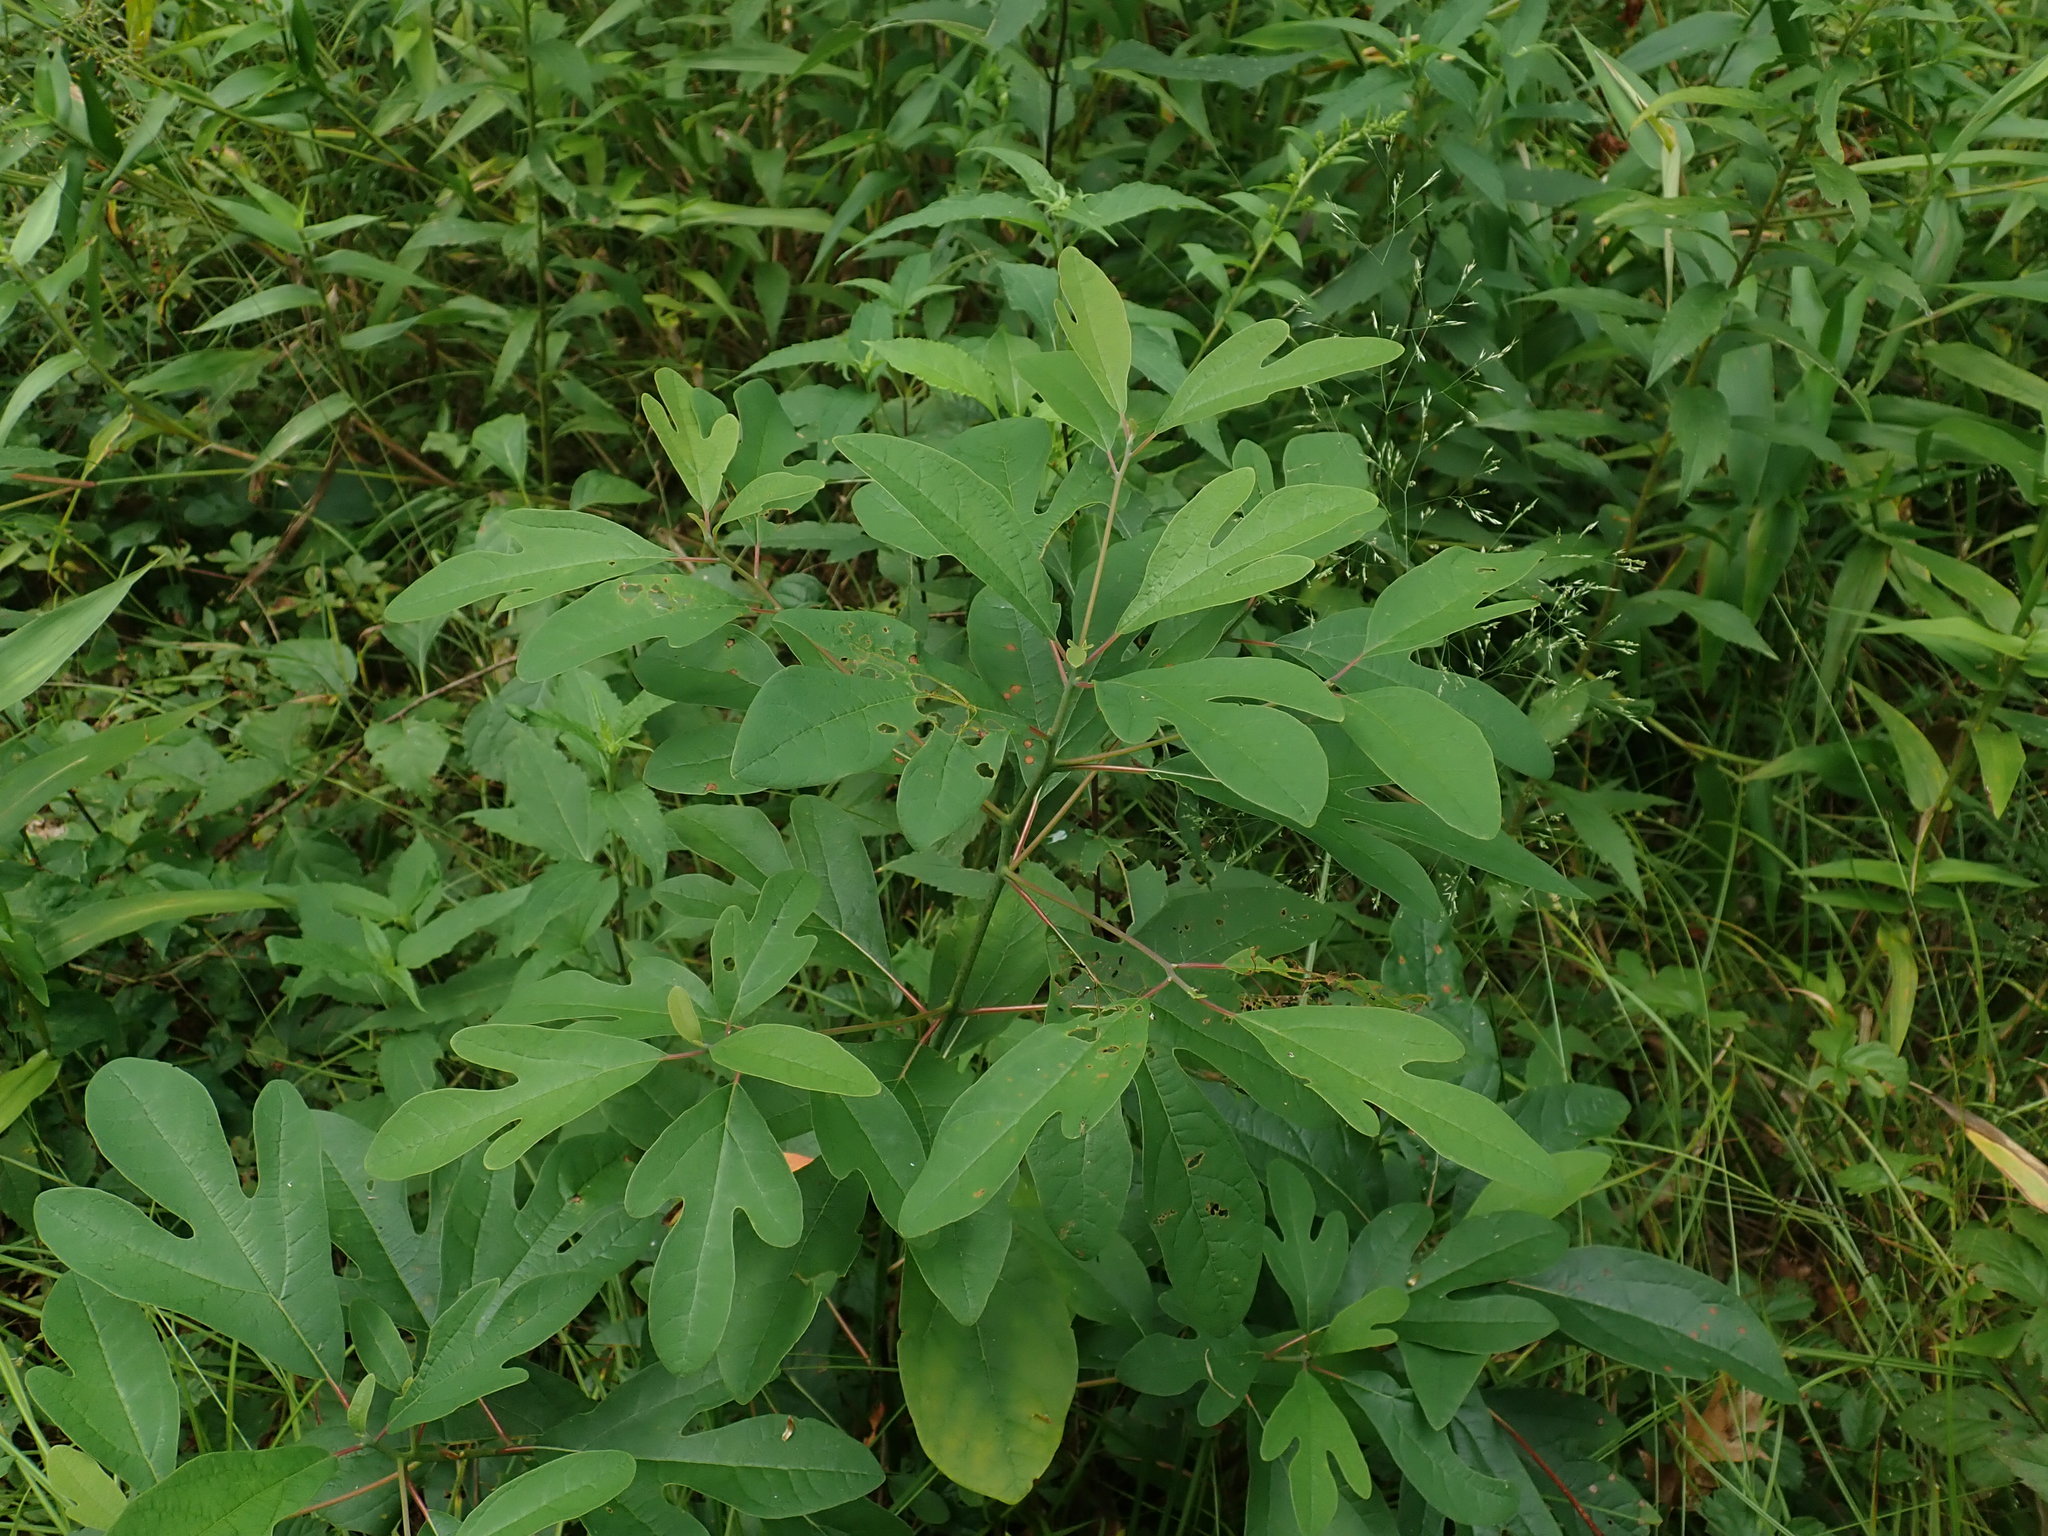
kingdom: Plantae
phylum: Tracheophyta
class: Magnoliopsida
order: Laurales
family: Lauraceae
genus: Sassafras
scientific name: Sassafras albidum
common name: Sassafras
